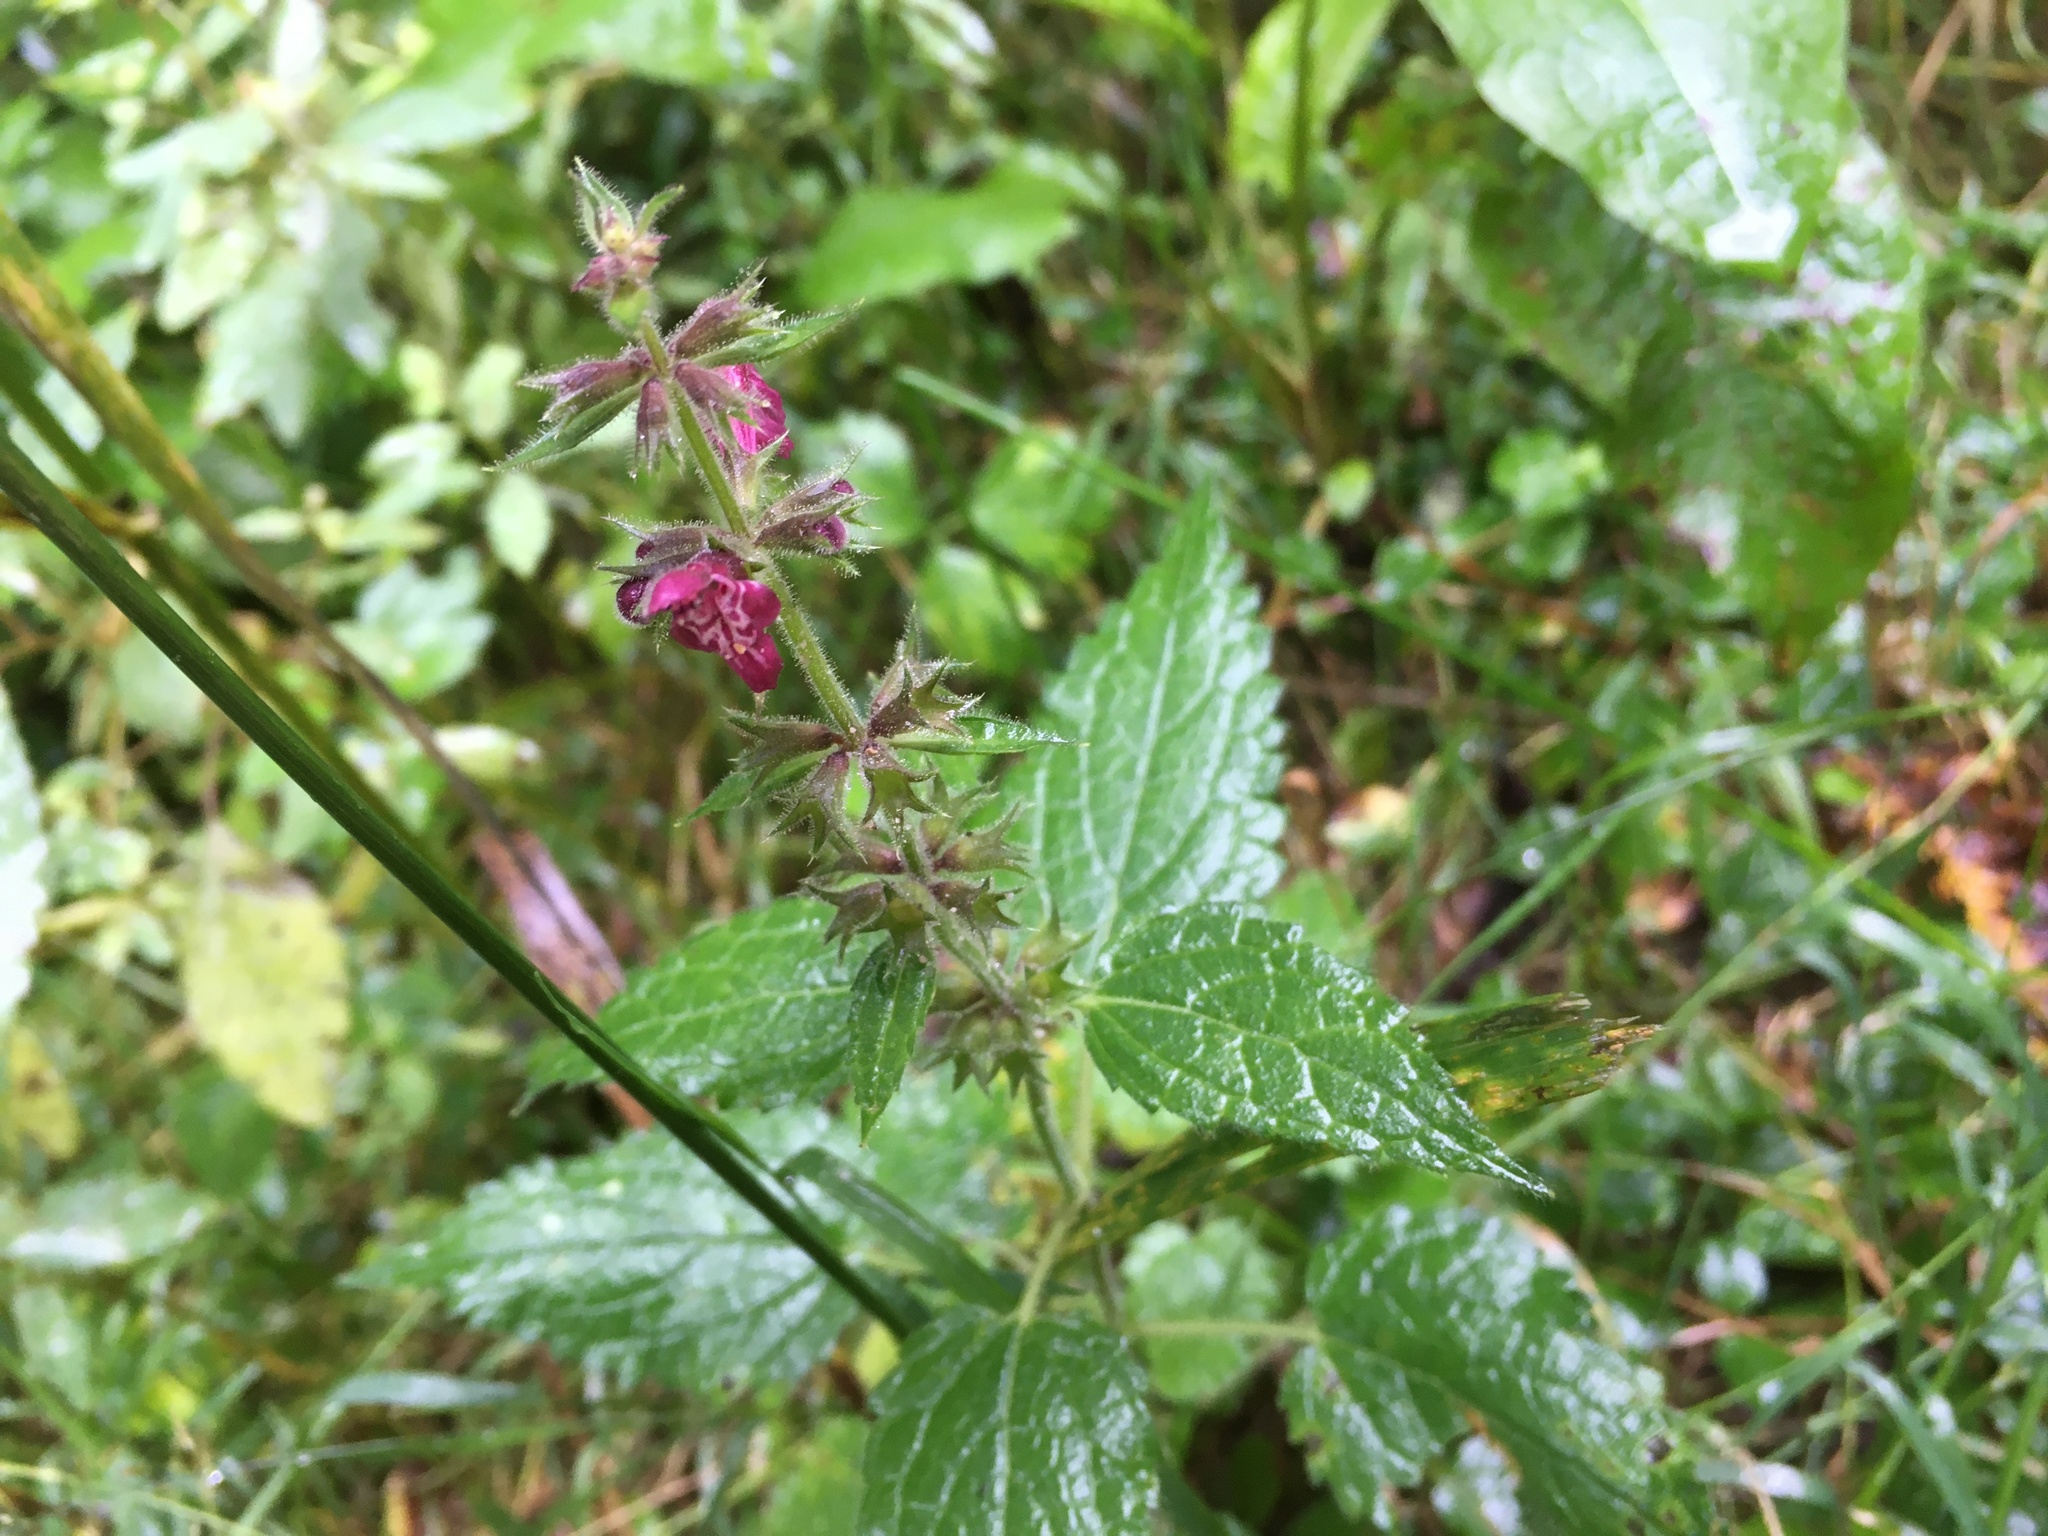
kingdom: Plantae
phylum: Tracheophyta
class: Magnoliopsida
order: Lamiales
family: Lamiaceae
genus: Stachys
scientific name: Stachys sylvatica
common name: Hedge woundwort
